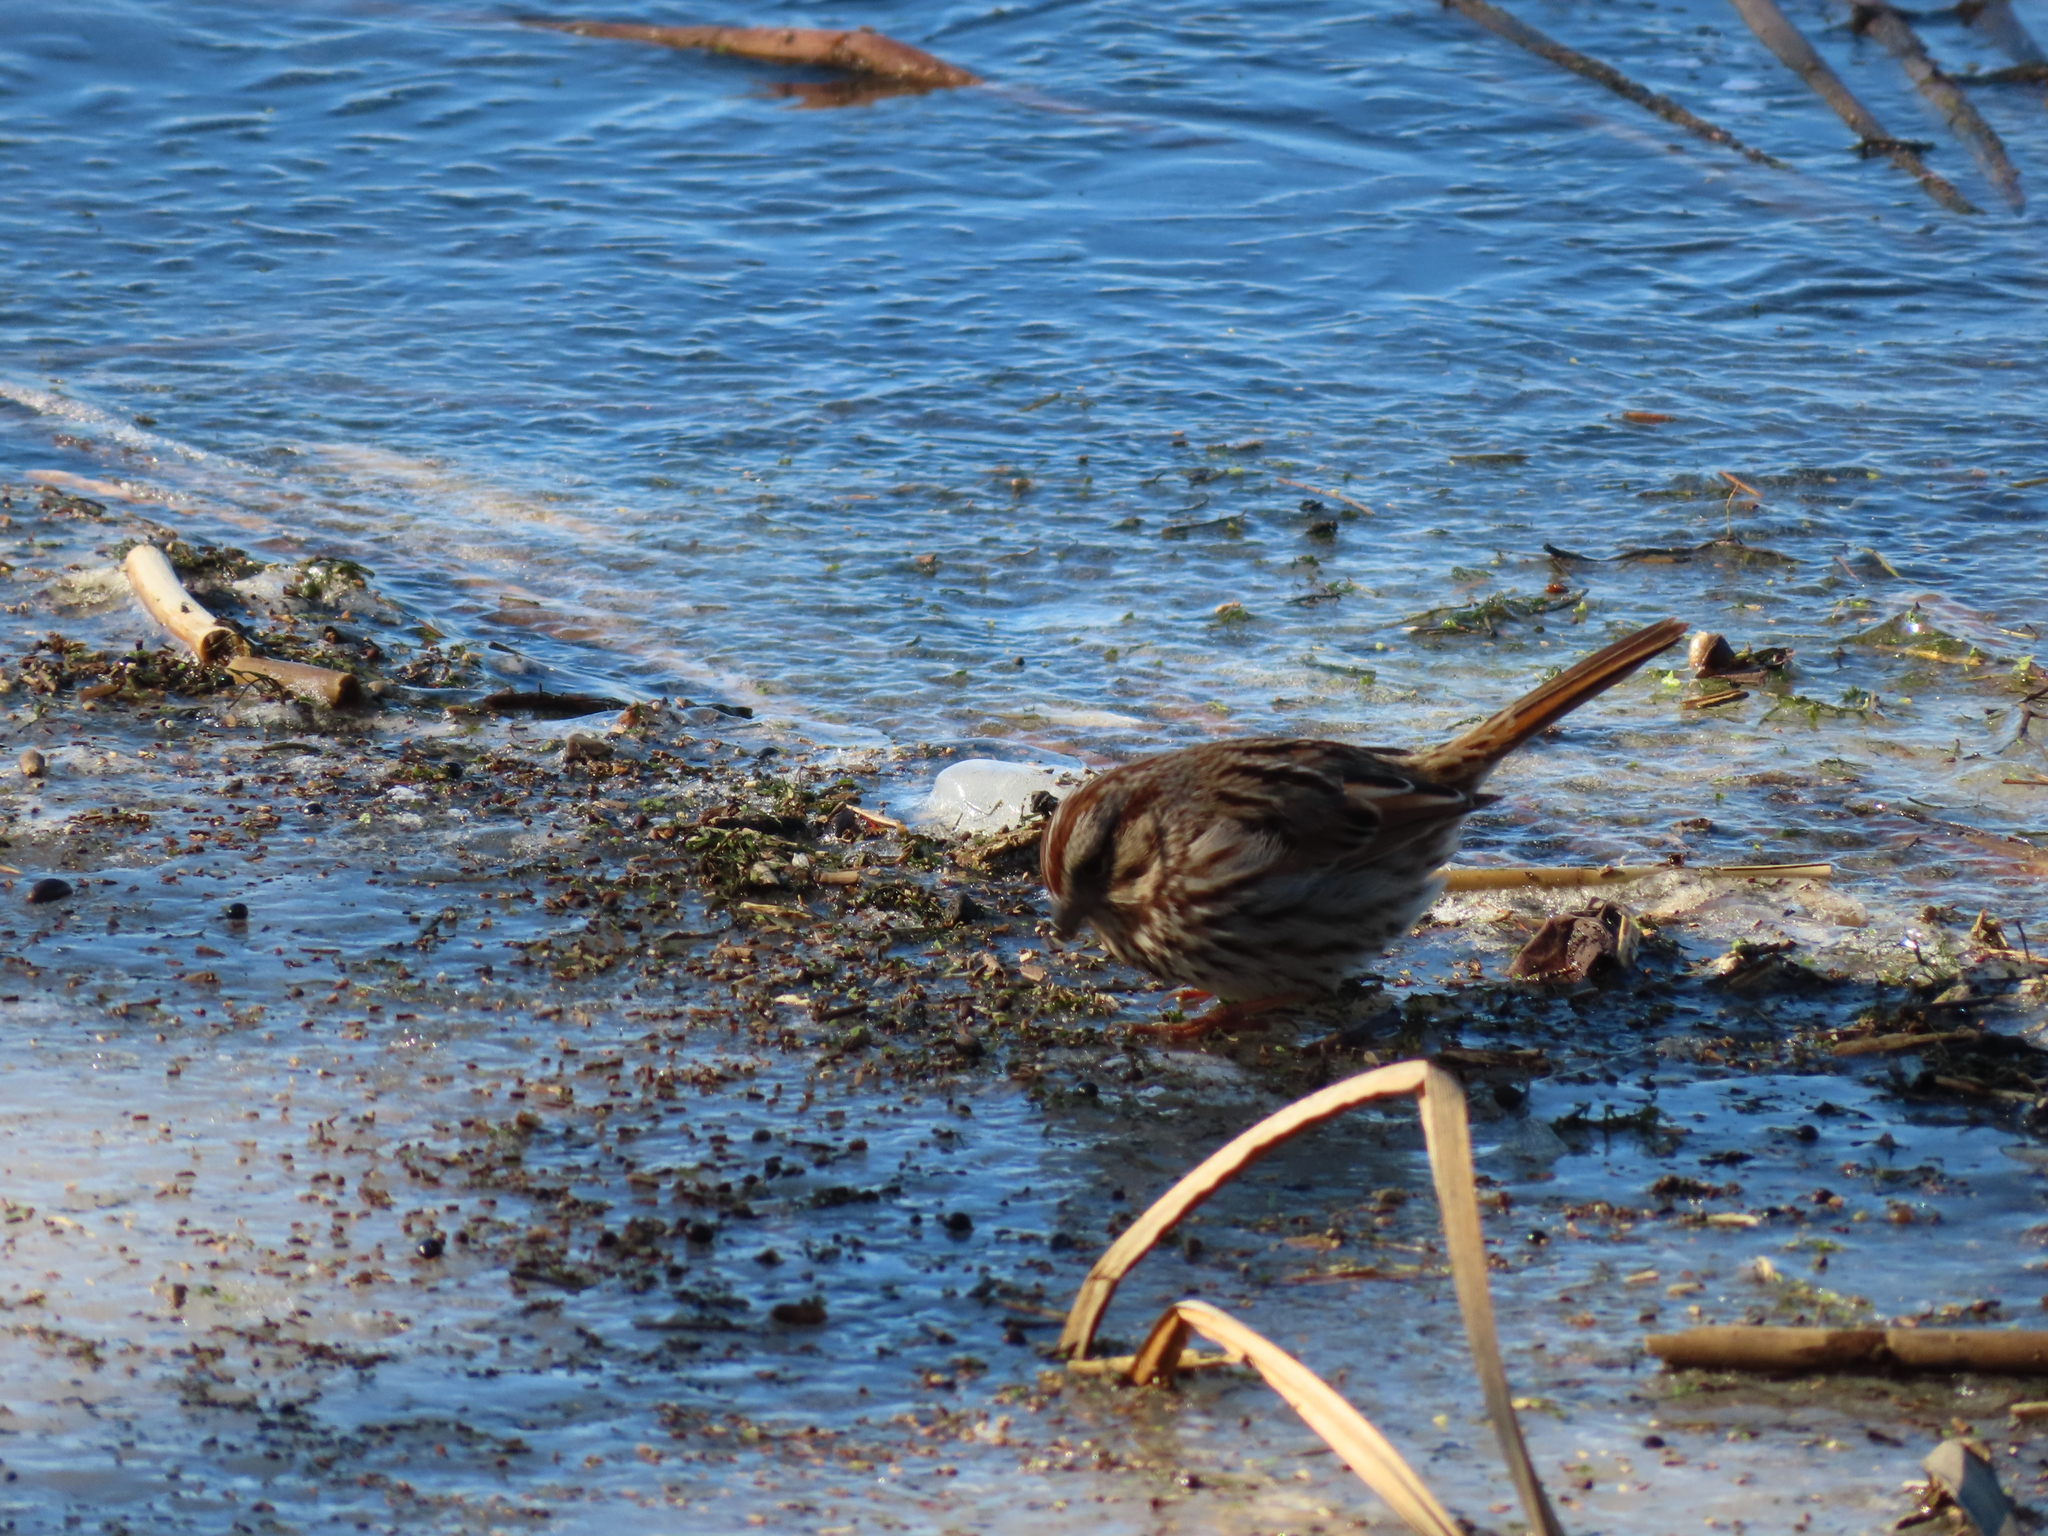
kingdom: Animalia
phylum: Chordata
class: Aves
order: Passeriformes
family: Passerellidae
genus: Melospiza
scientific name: Melospiza melodia
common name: Song sparrow
